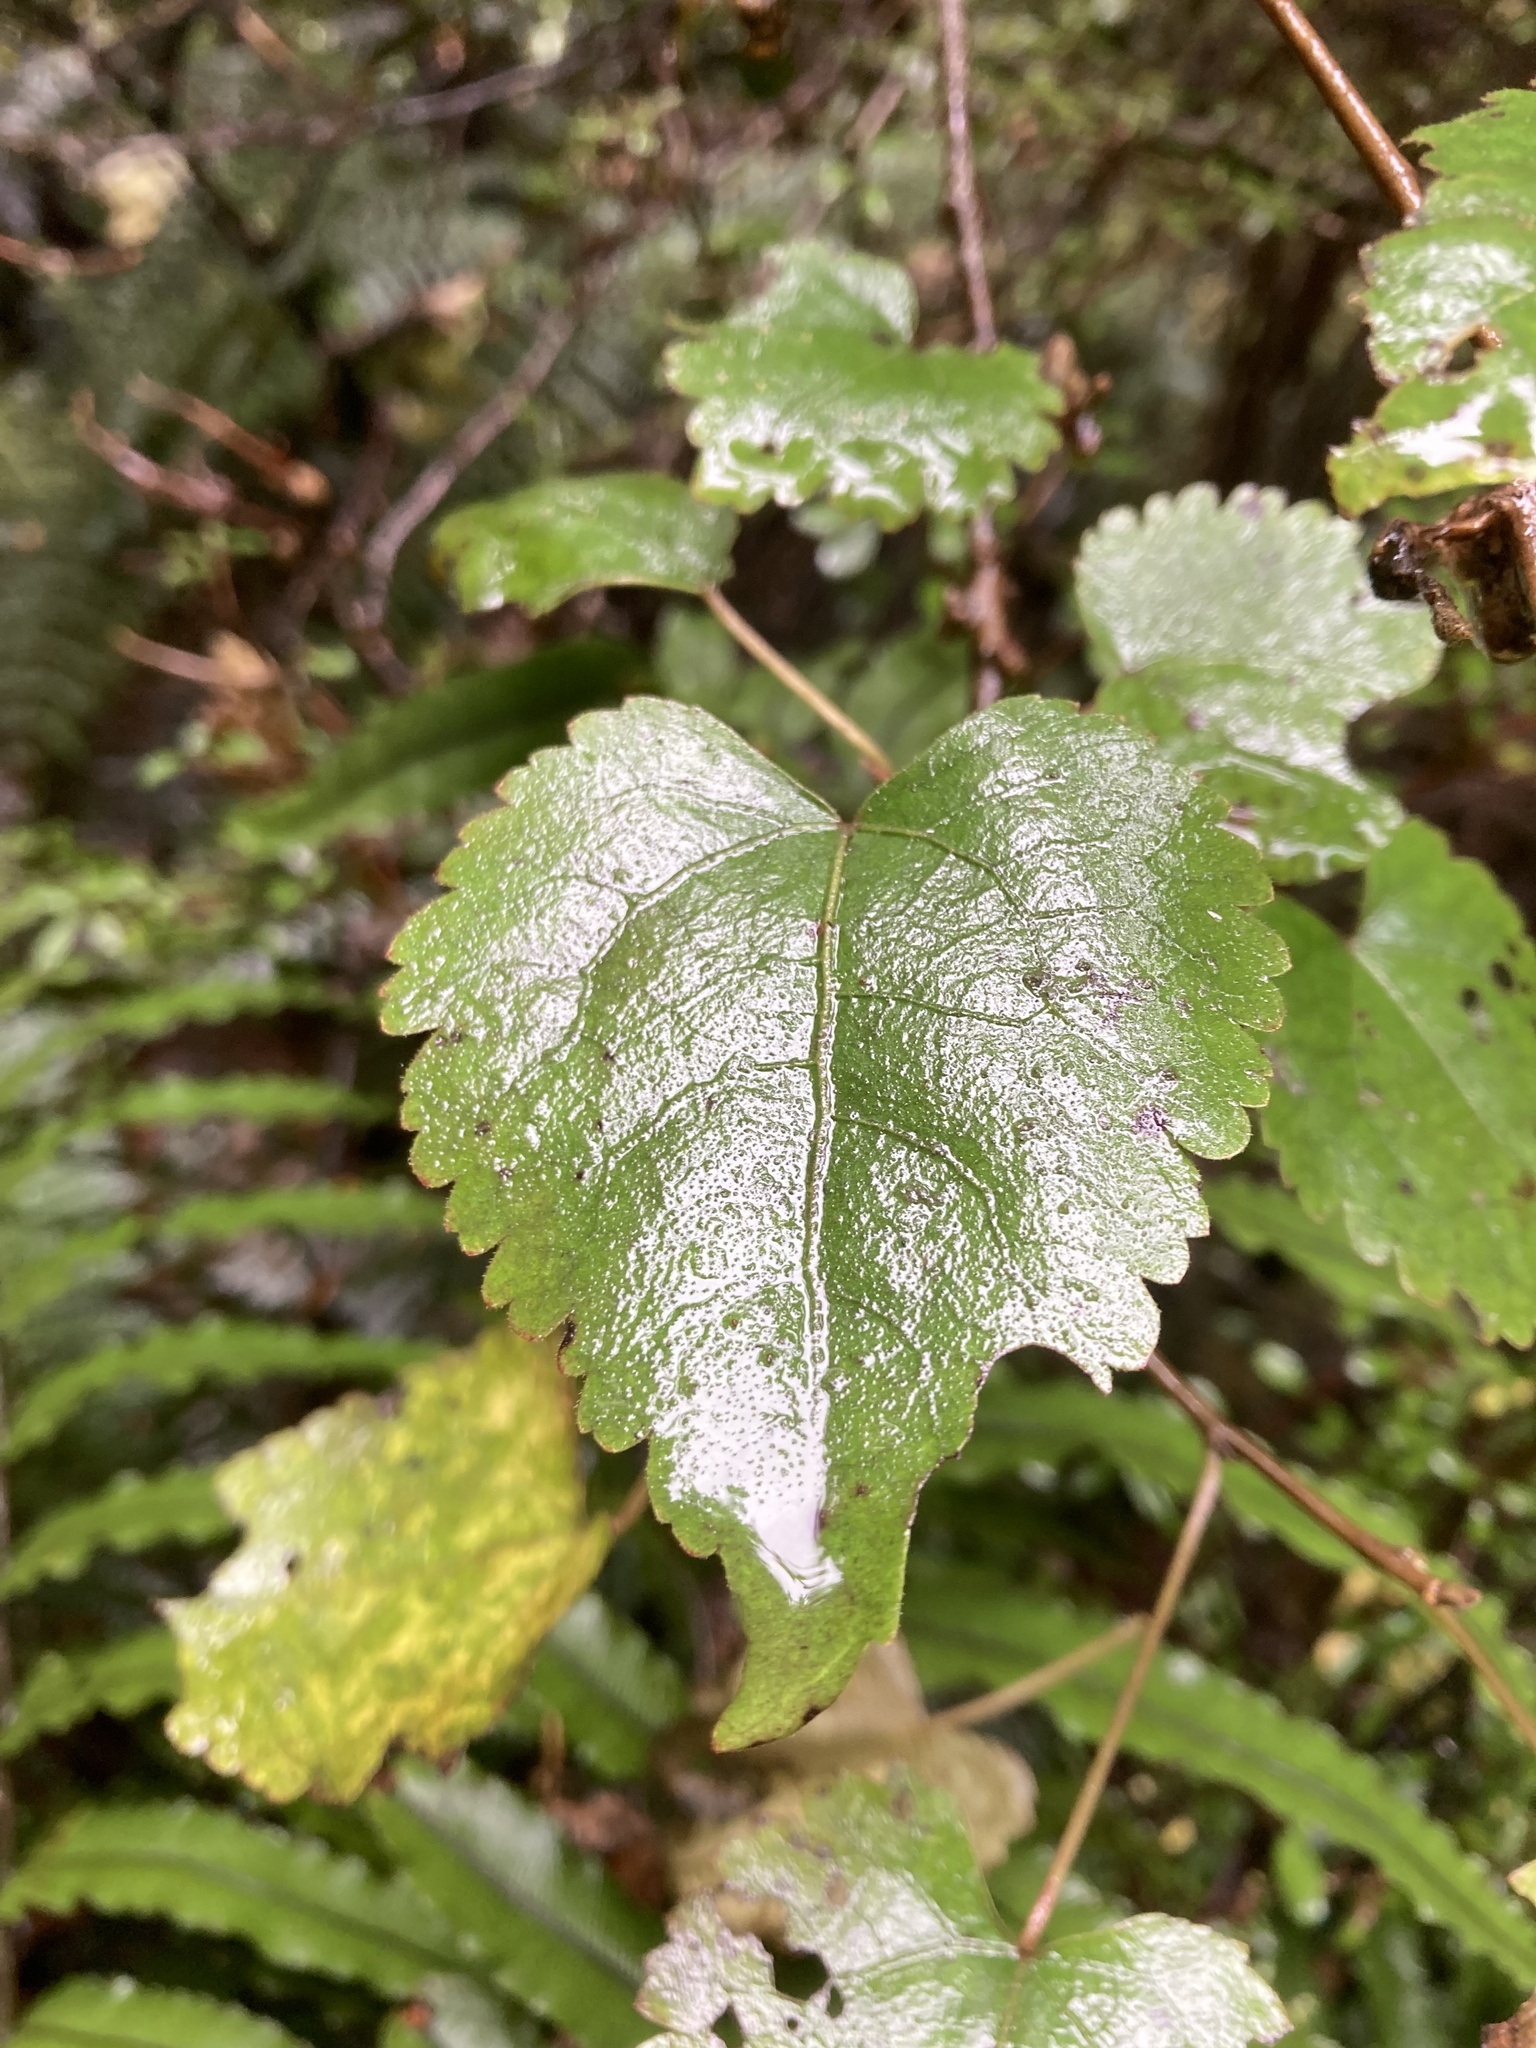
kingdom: Plantae
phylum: Tracheophyta
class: Magnoliopsida
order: Malvales
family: Malvaceae
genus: Hoheria
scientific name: Hoheria glabrata
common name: Mountain-ribbon
